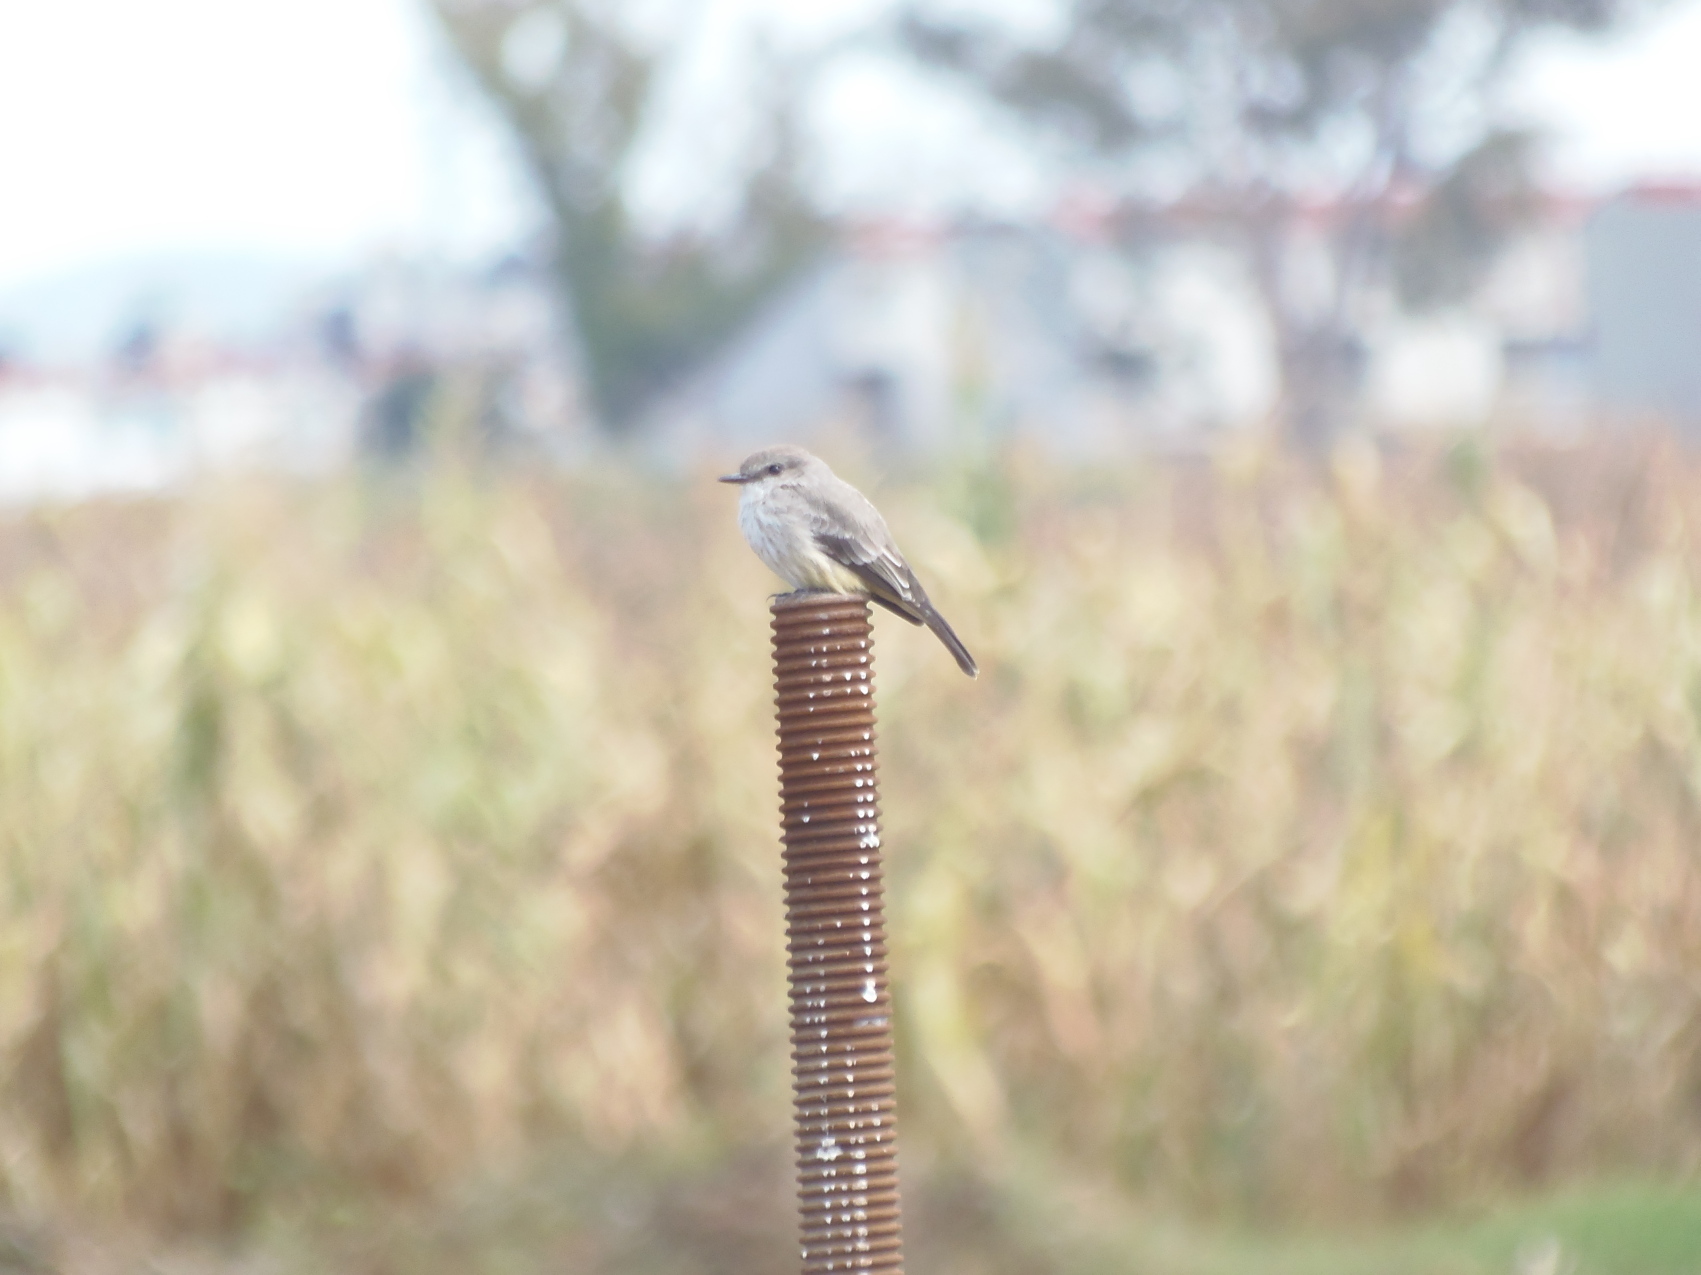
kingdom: Animalia
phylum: Chordata
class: Aves
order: Passeriformes
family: Tyrannidae
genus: Pyrocephalus
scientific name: Pyrocephalus rubinus
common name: Vermilion flycatcher
